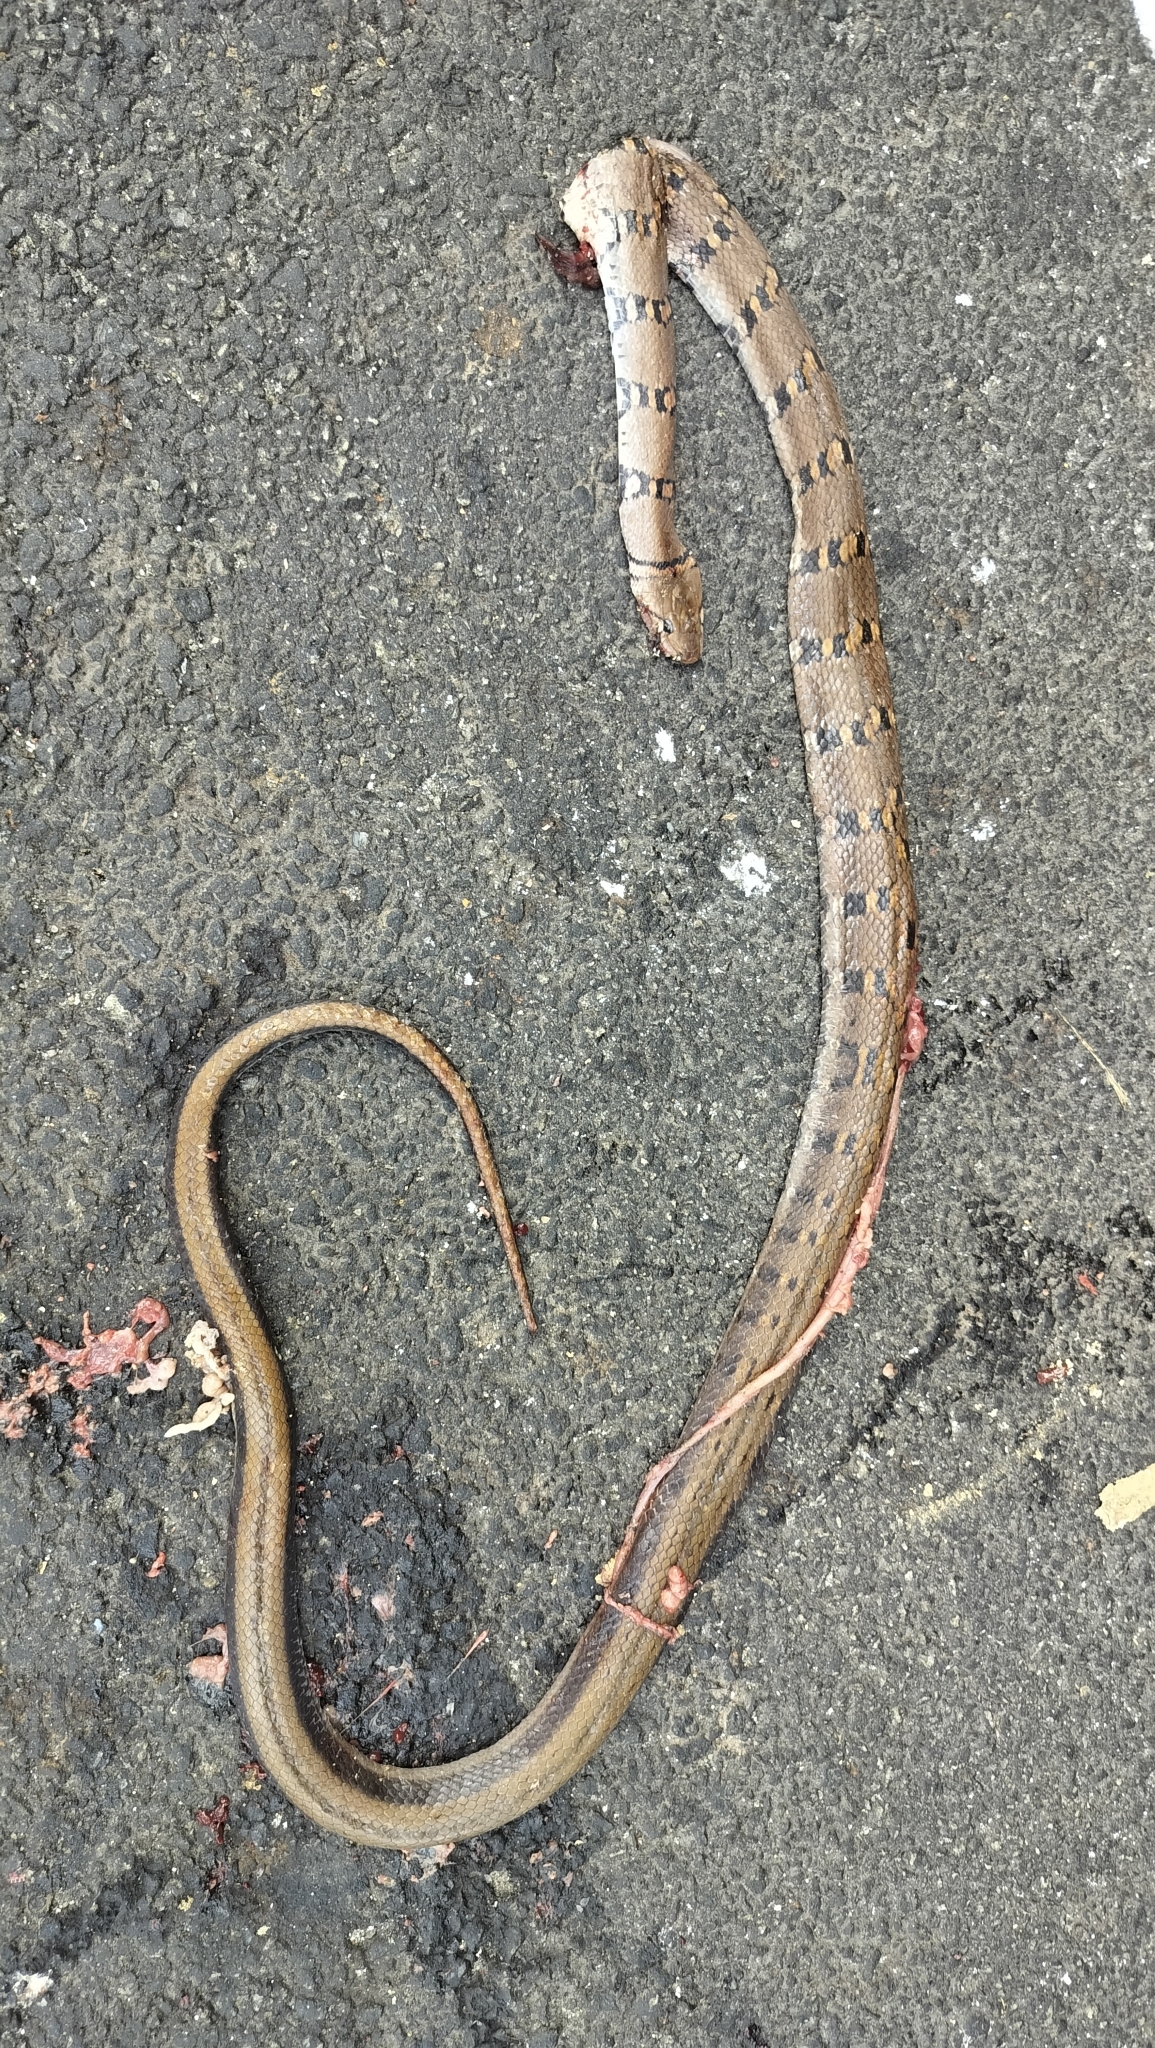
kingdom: Animalia
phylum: Chordata
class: Squamata
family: Colubridae
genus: Coelognathus
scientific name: Coelognathus helena
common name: Trinket snake
